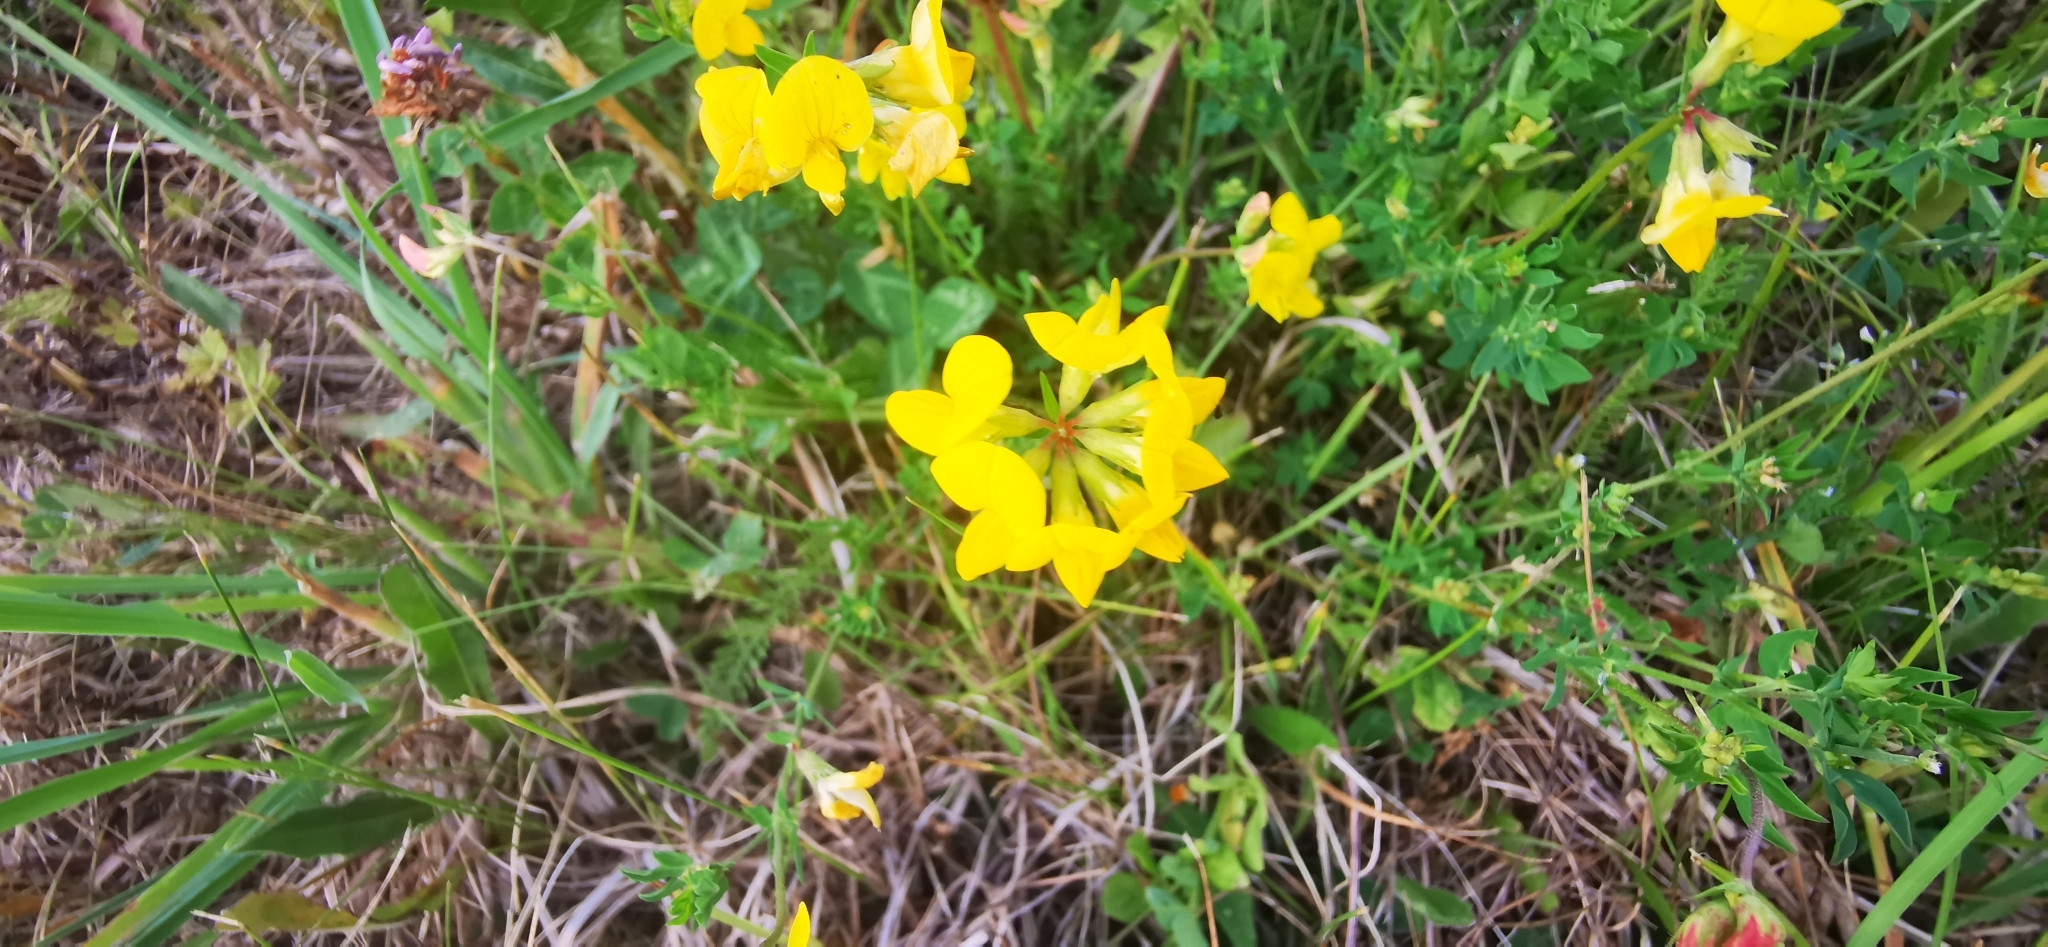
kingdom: Plantae
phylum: Tracheophyta
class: Magnoliopsida
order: Fabales
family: Fabaceae
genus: Lotus
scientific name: Lotus corniculatus
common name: Common bird's-foot-trefoil
